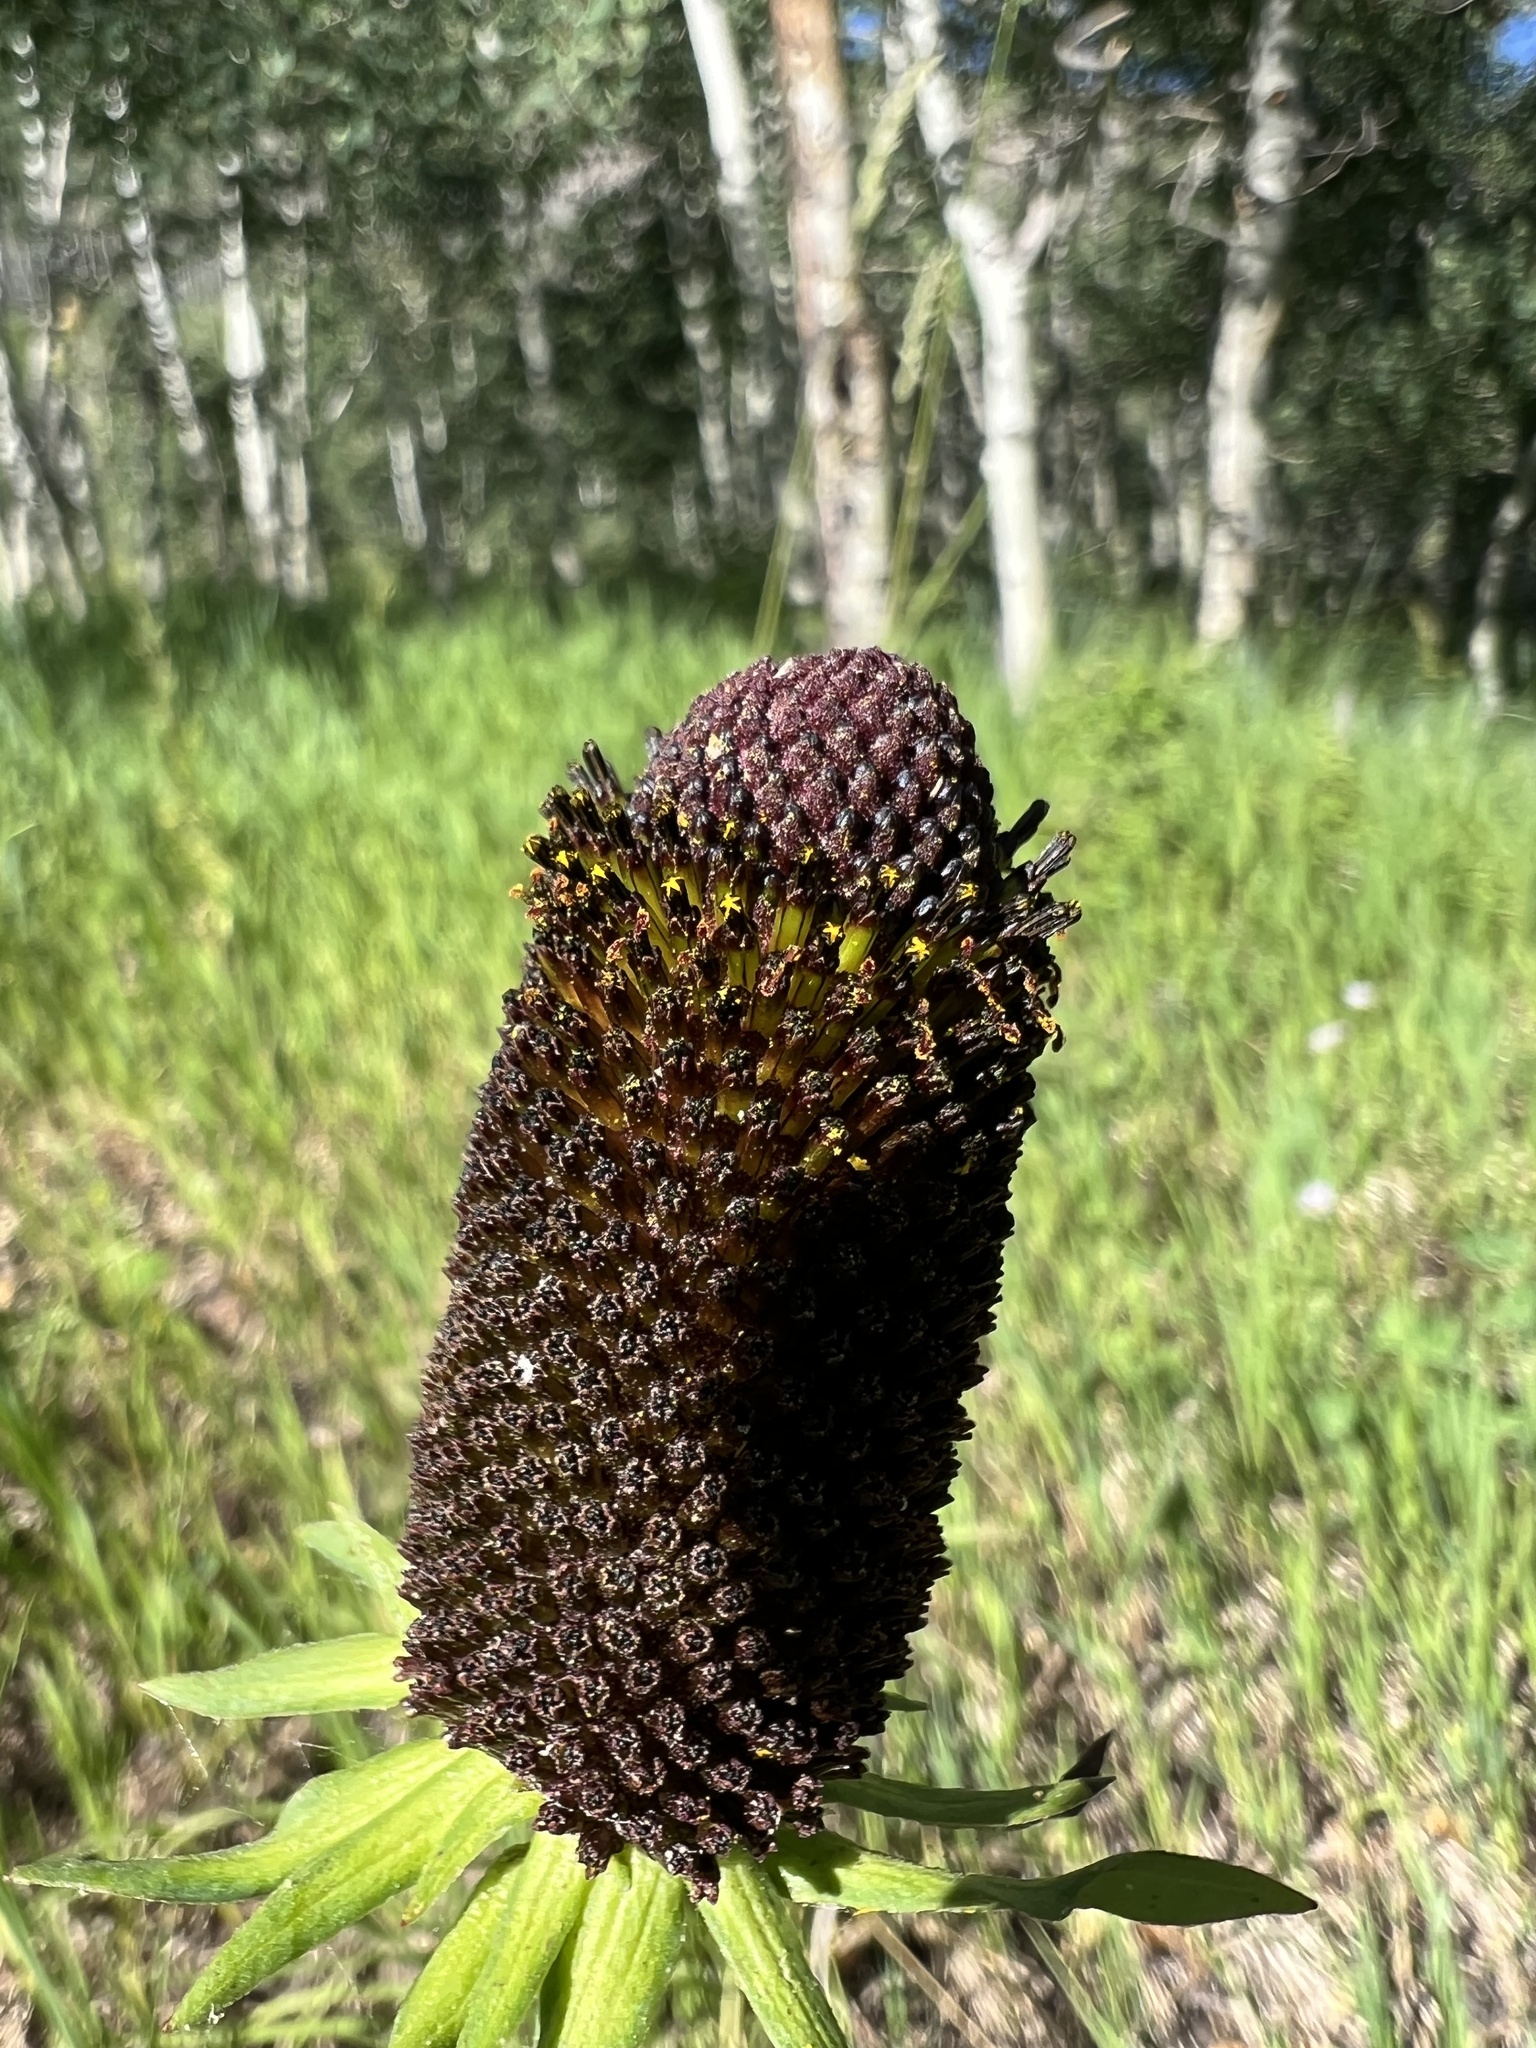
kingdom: Plantae
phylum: Tracheophyta
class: Magnoliopsida
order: Asterales
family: Asteraceae
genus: Rudbeckia
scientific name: Rudbeckia occidentalis
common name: Western coneflower
